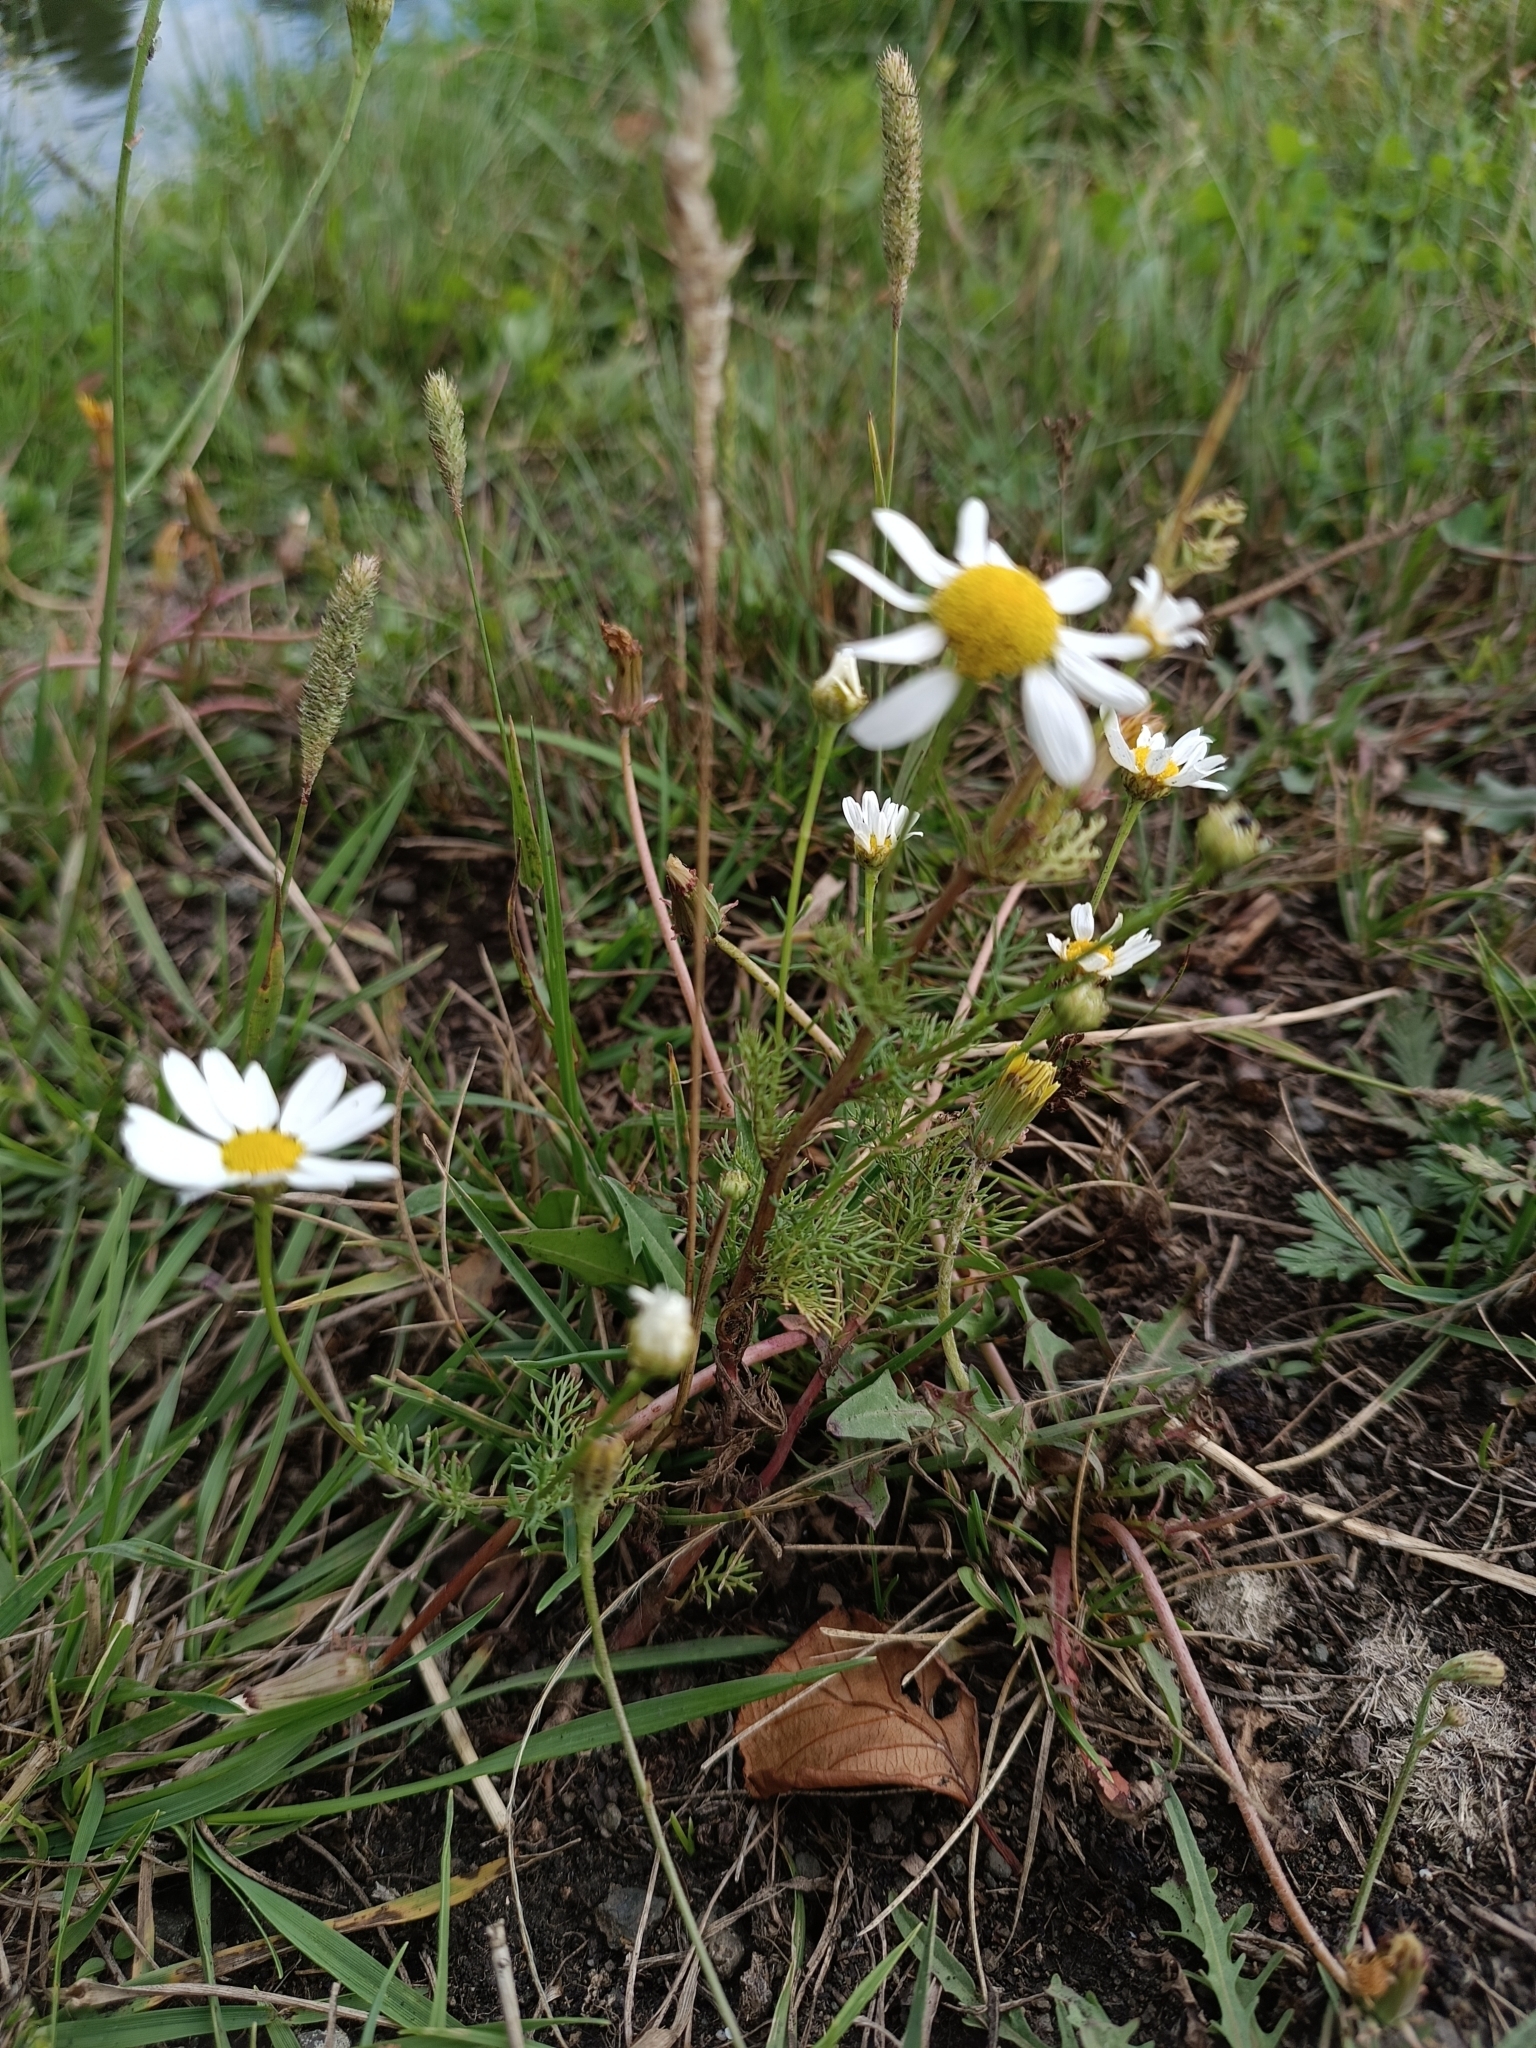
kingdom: Plantae
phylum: Tracheophyta
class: Magnoliopsida
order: Asterales
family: Asteraceae
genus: Tripleurospermum
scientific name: Tripleurospermum inodorum
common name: Scentless mayweed
